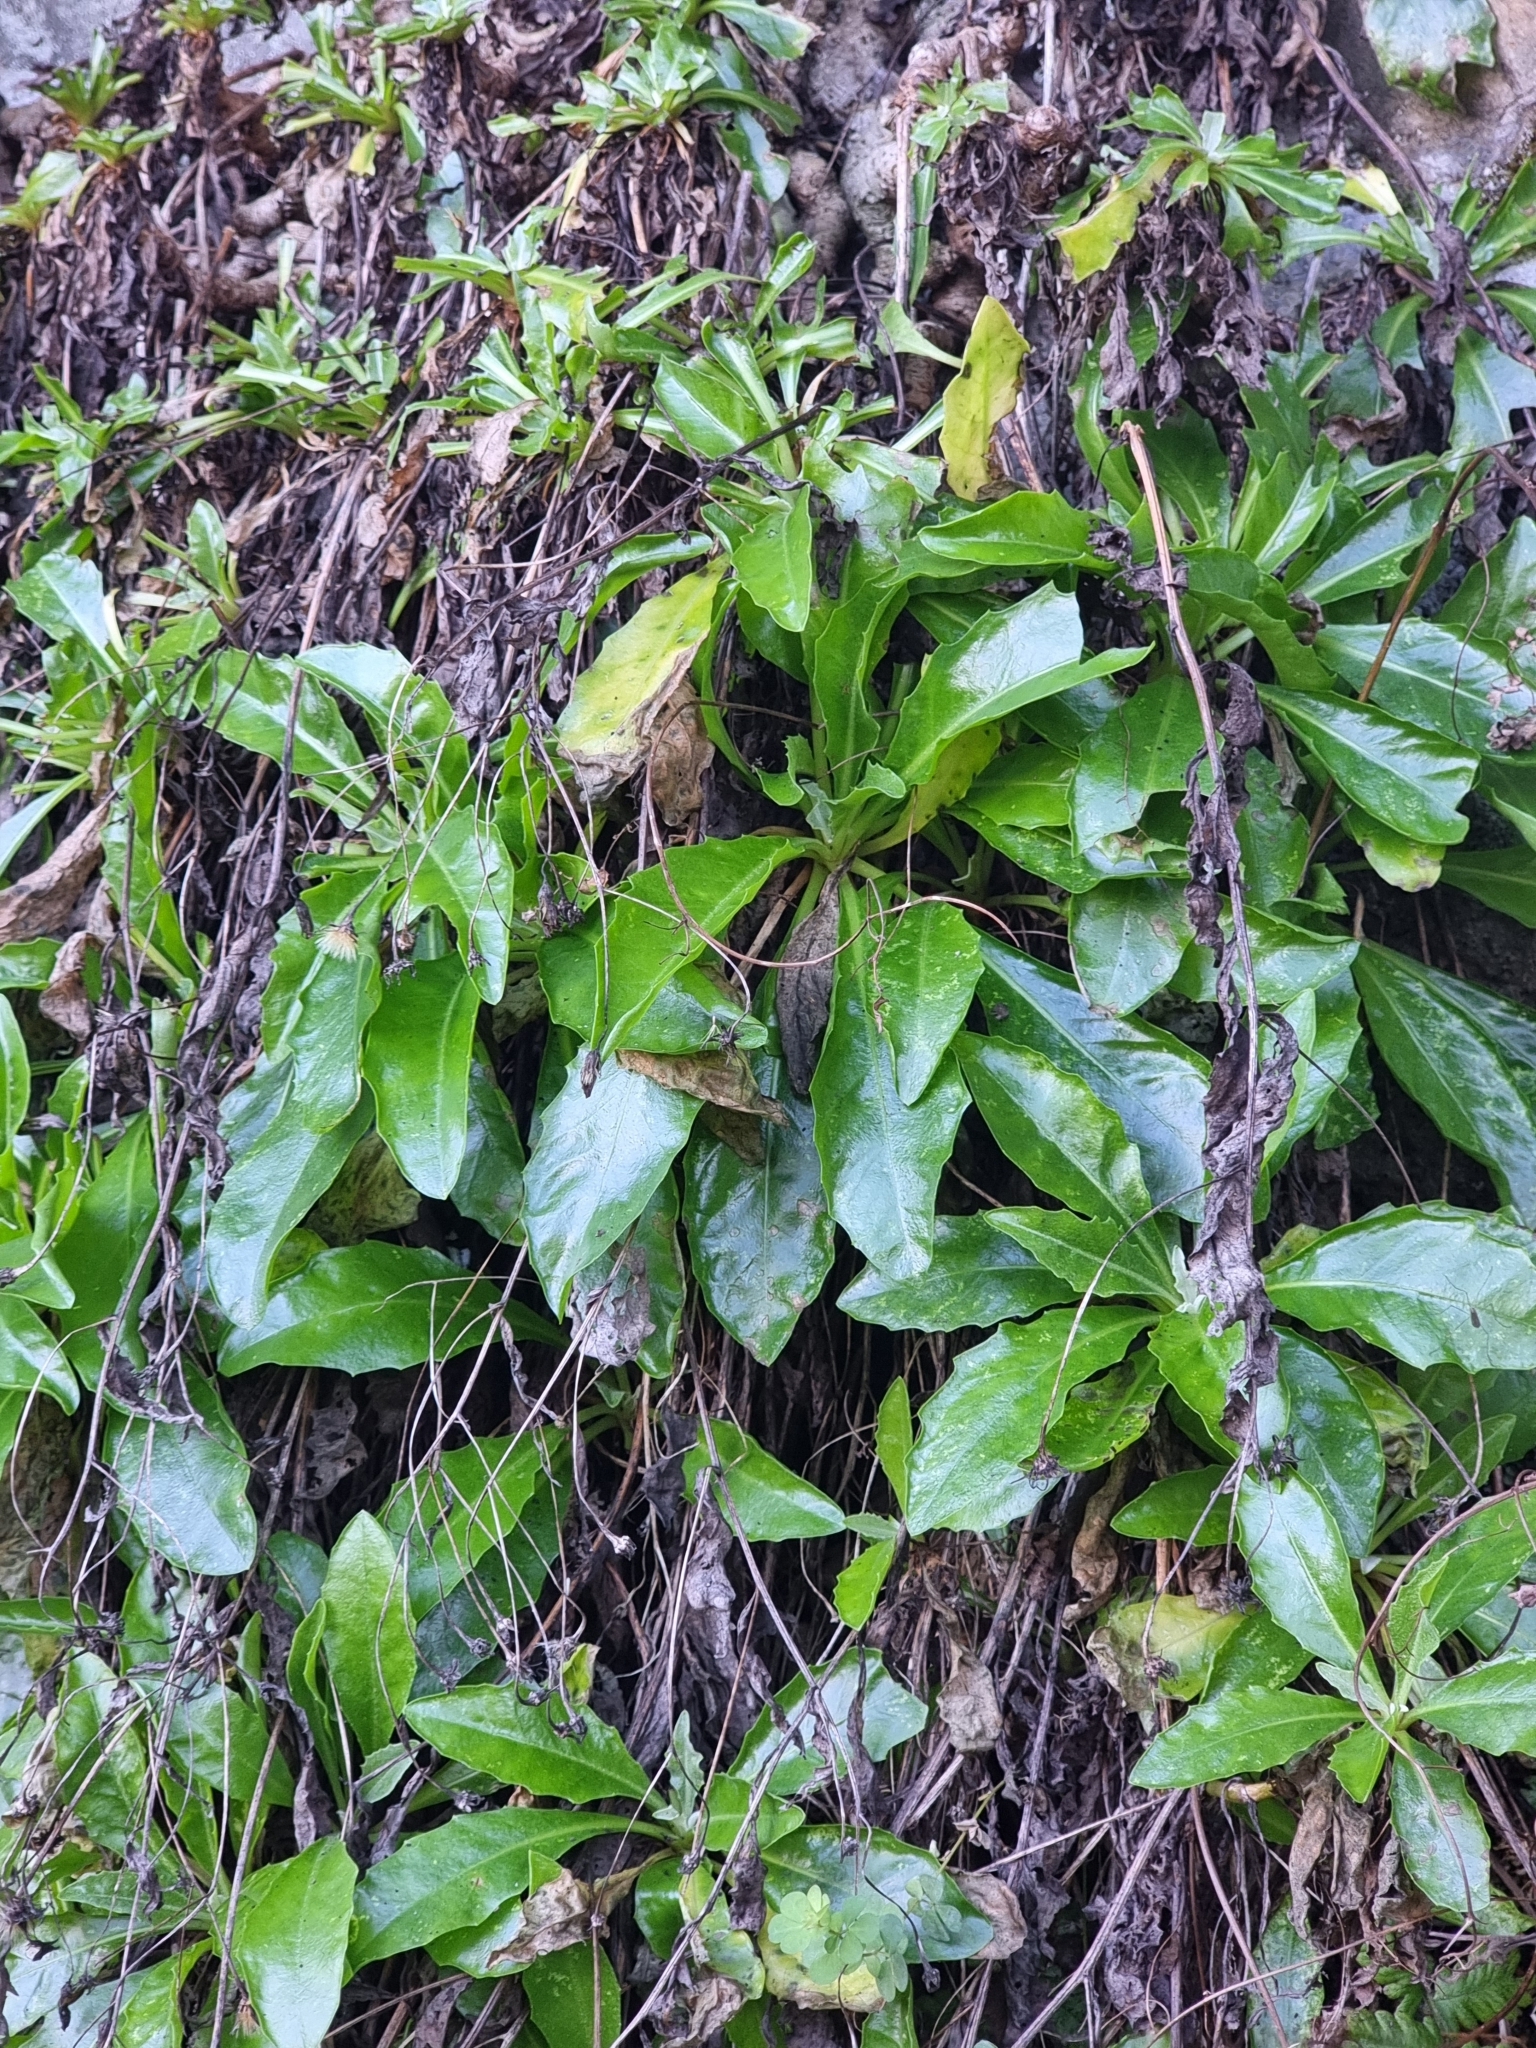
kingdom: Plantae
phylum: Tracheophyta
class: Magnoliopsida
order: Asterales
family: Asteraceae
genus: Tolpis
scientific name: Tolpis macrorhiza
